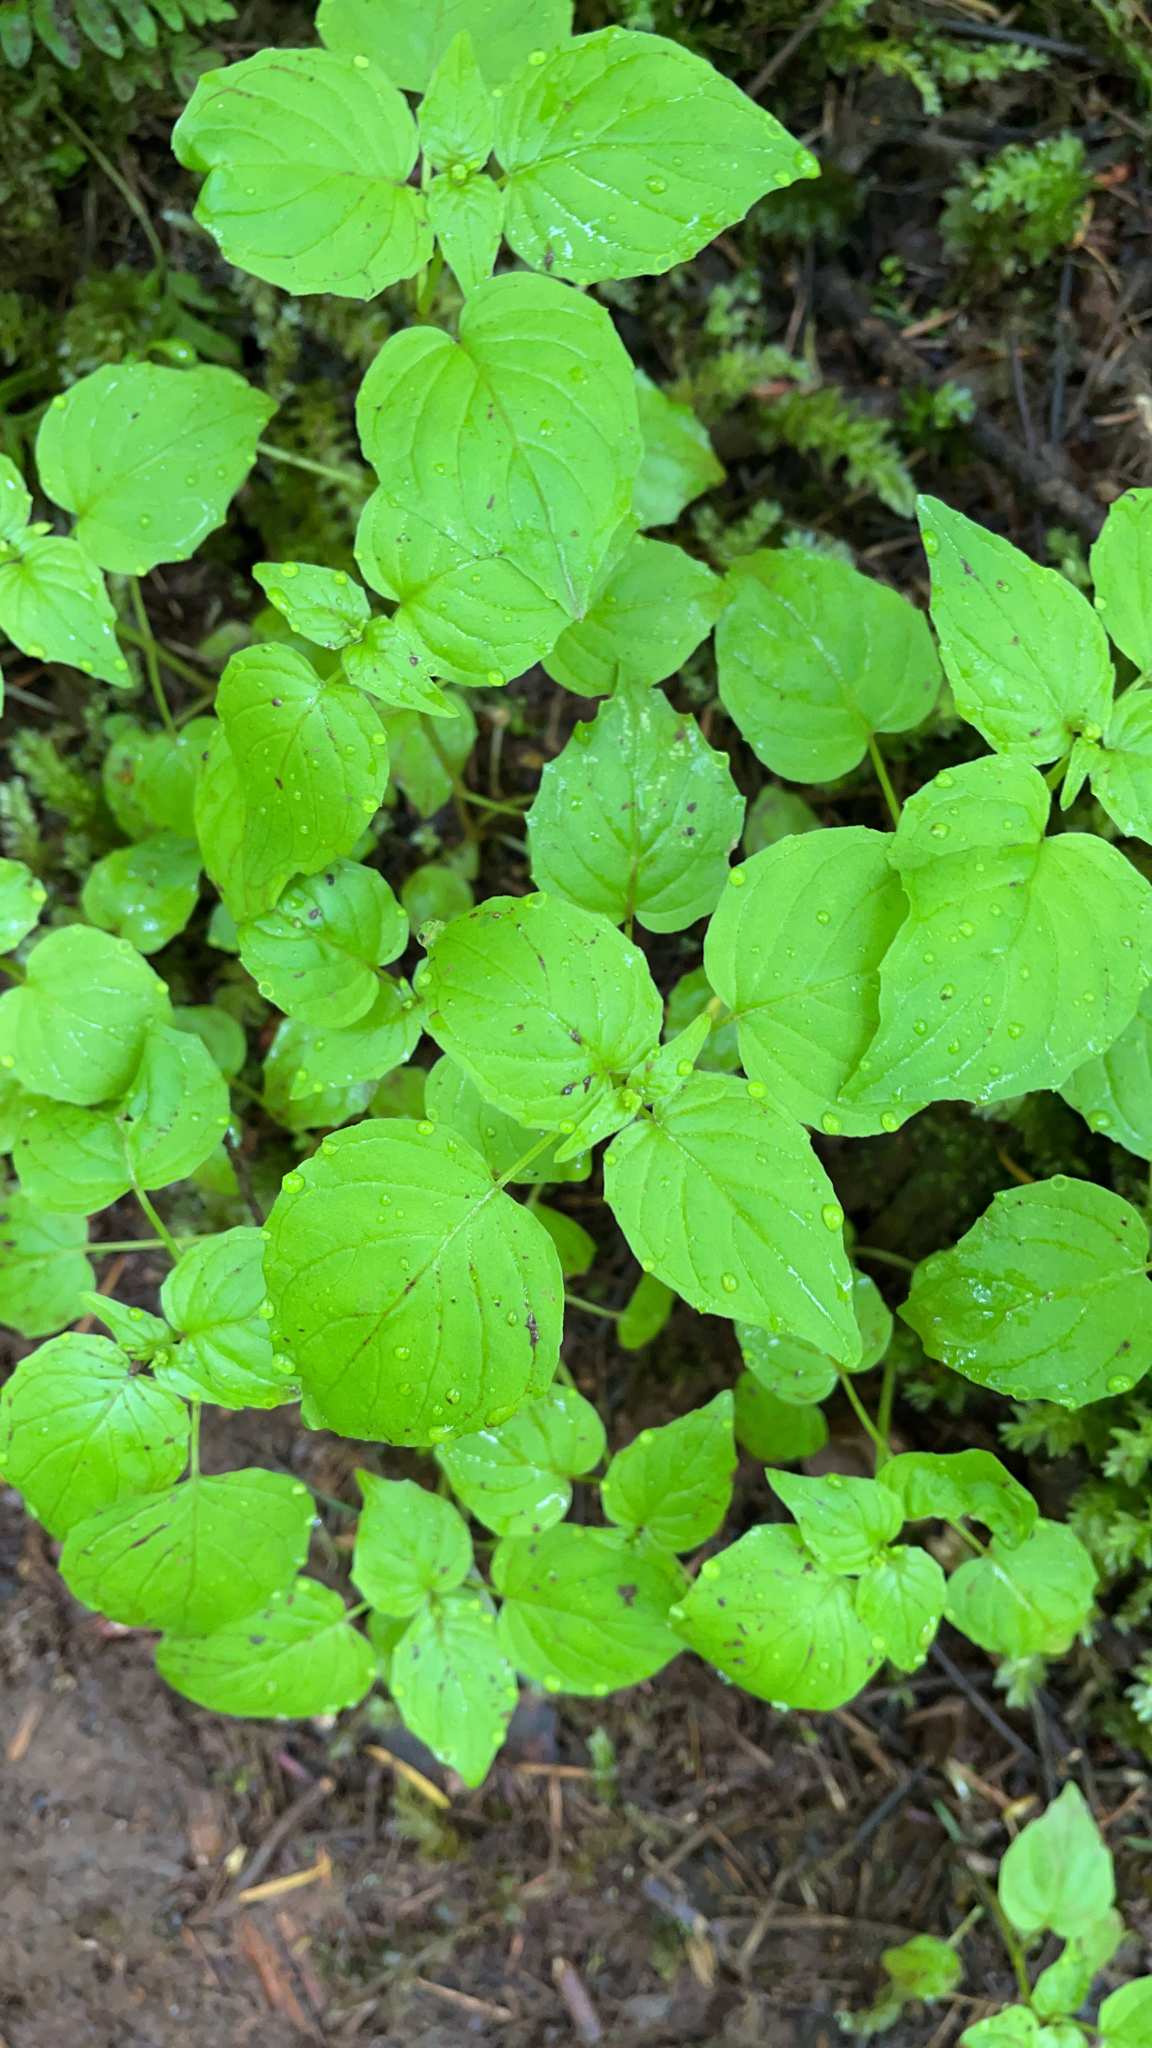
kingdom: Plantae
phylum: Tracheophyta
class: Magnoliopsida
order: Myrtales
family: Onagraceae
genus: Circaea
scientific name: Circaea alpina
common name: Alpine enchanter's-nightshade
